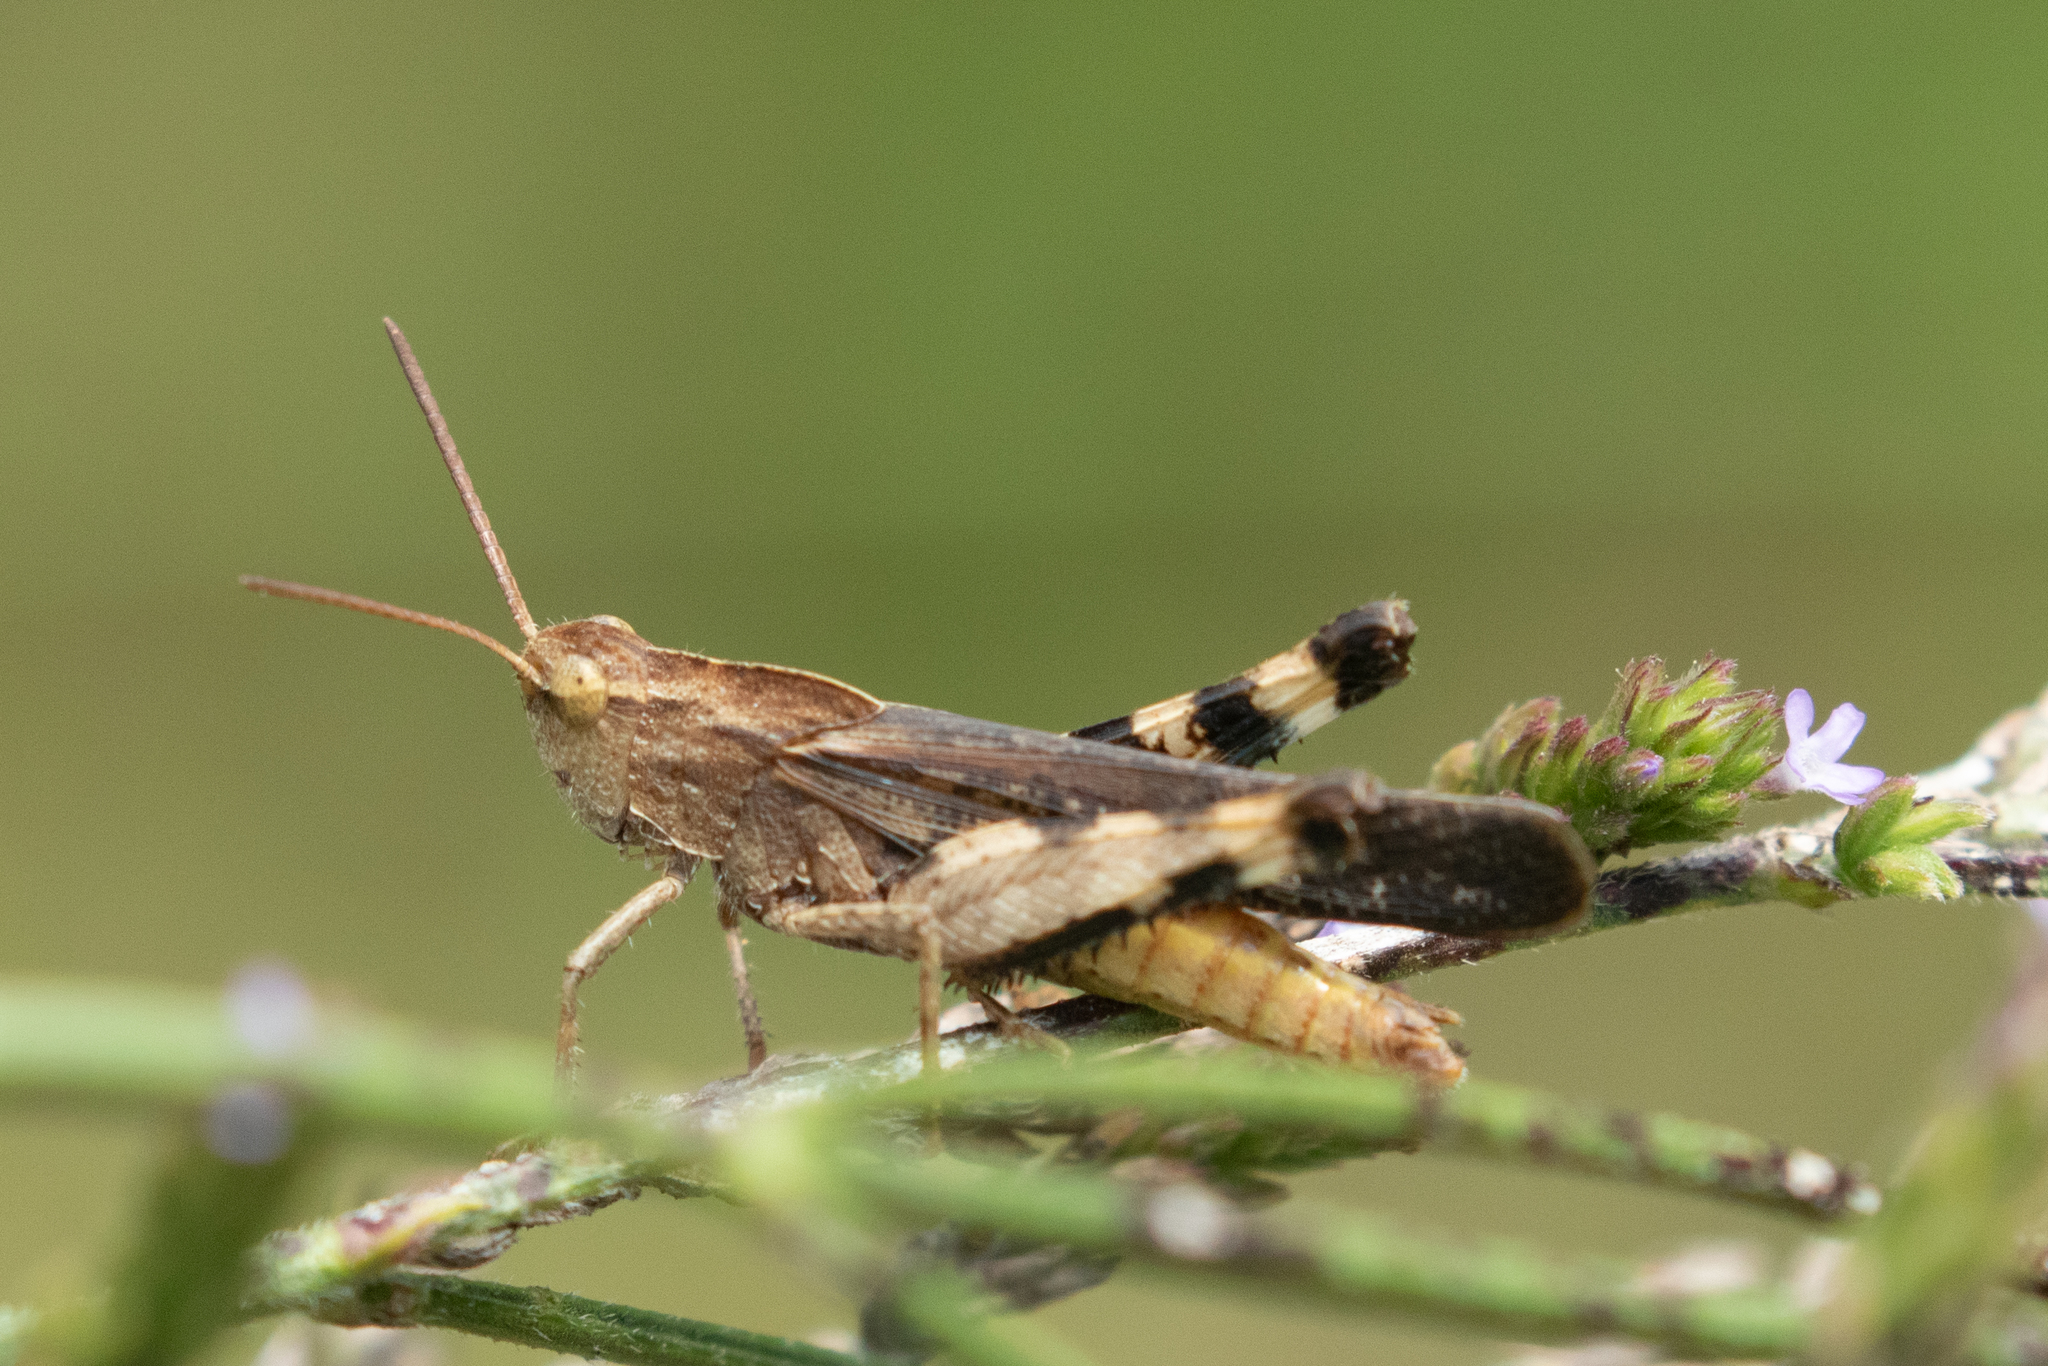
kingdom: Animalia
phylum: Arthropoda
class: Insecta
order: Orthoptera
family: Acrididae
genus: Chortophaga
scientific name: Chortophaga viridifasciata
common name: Green-striped grasshopper
